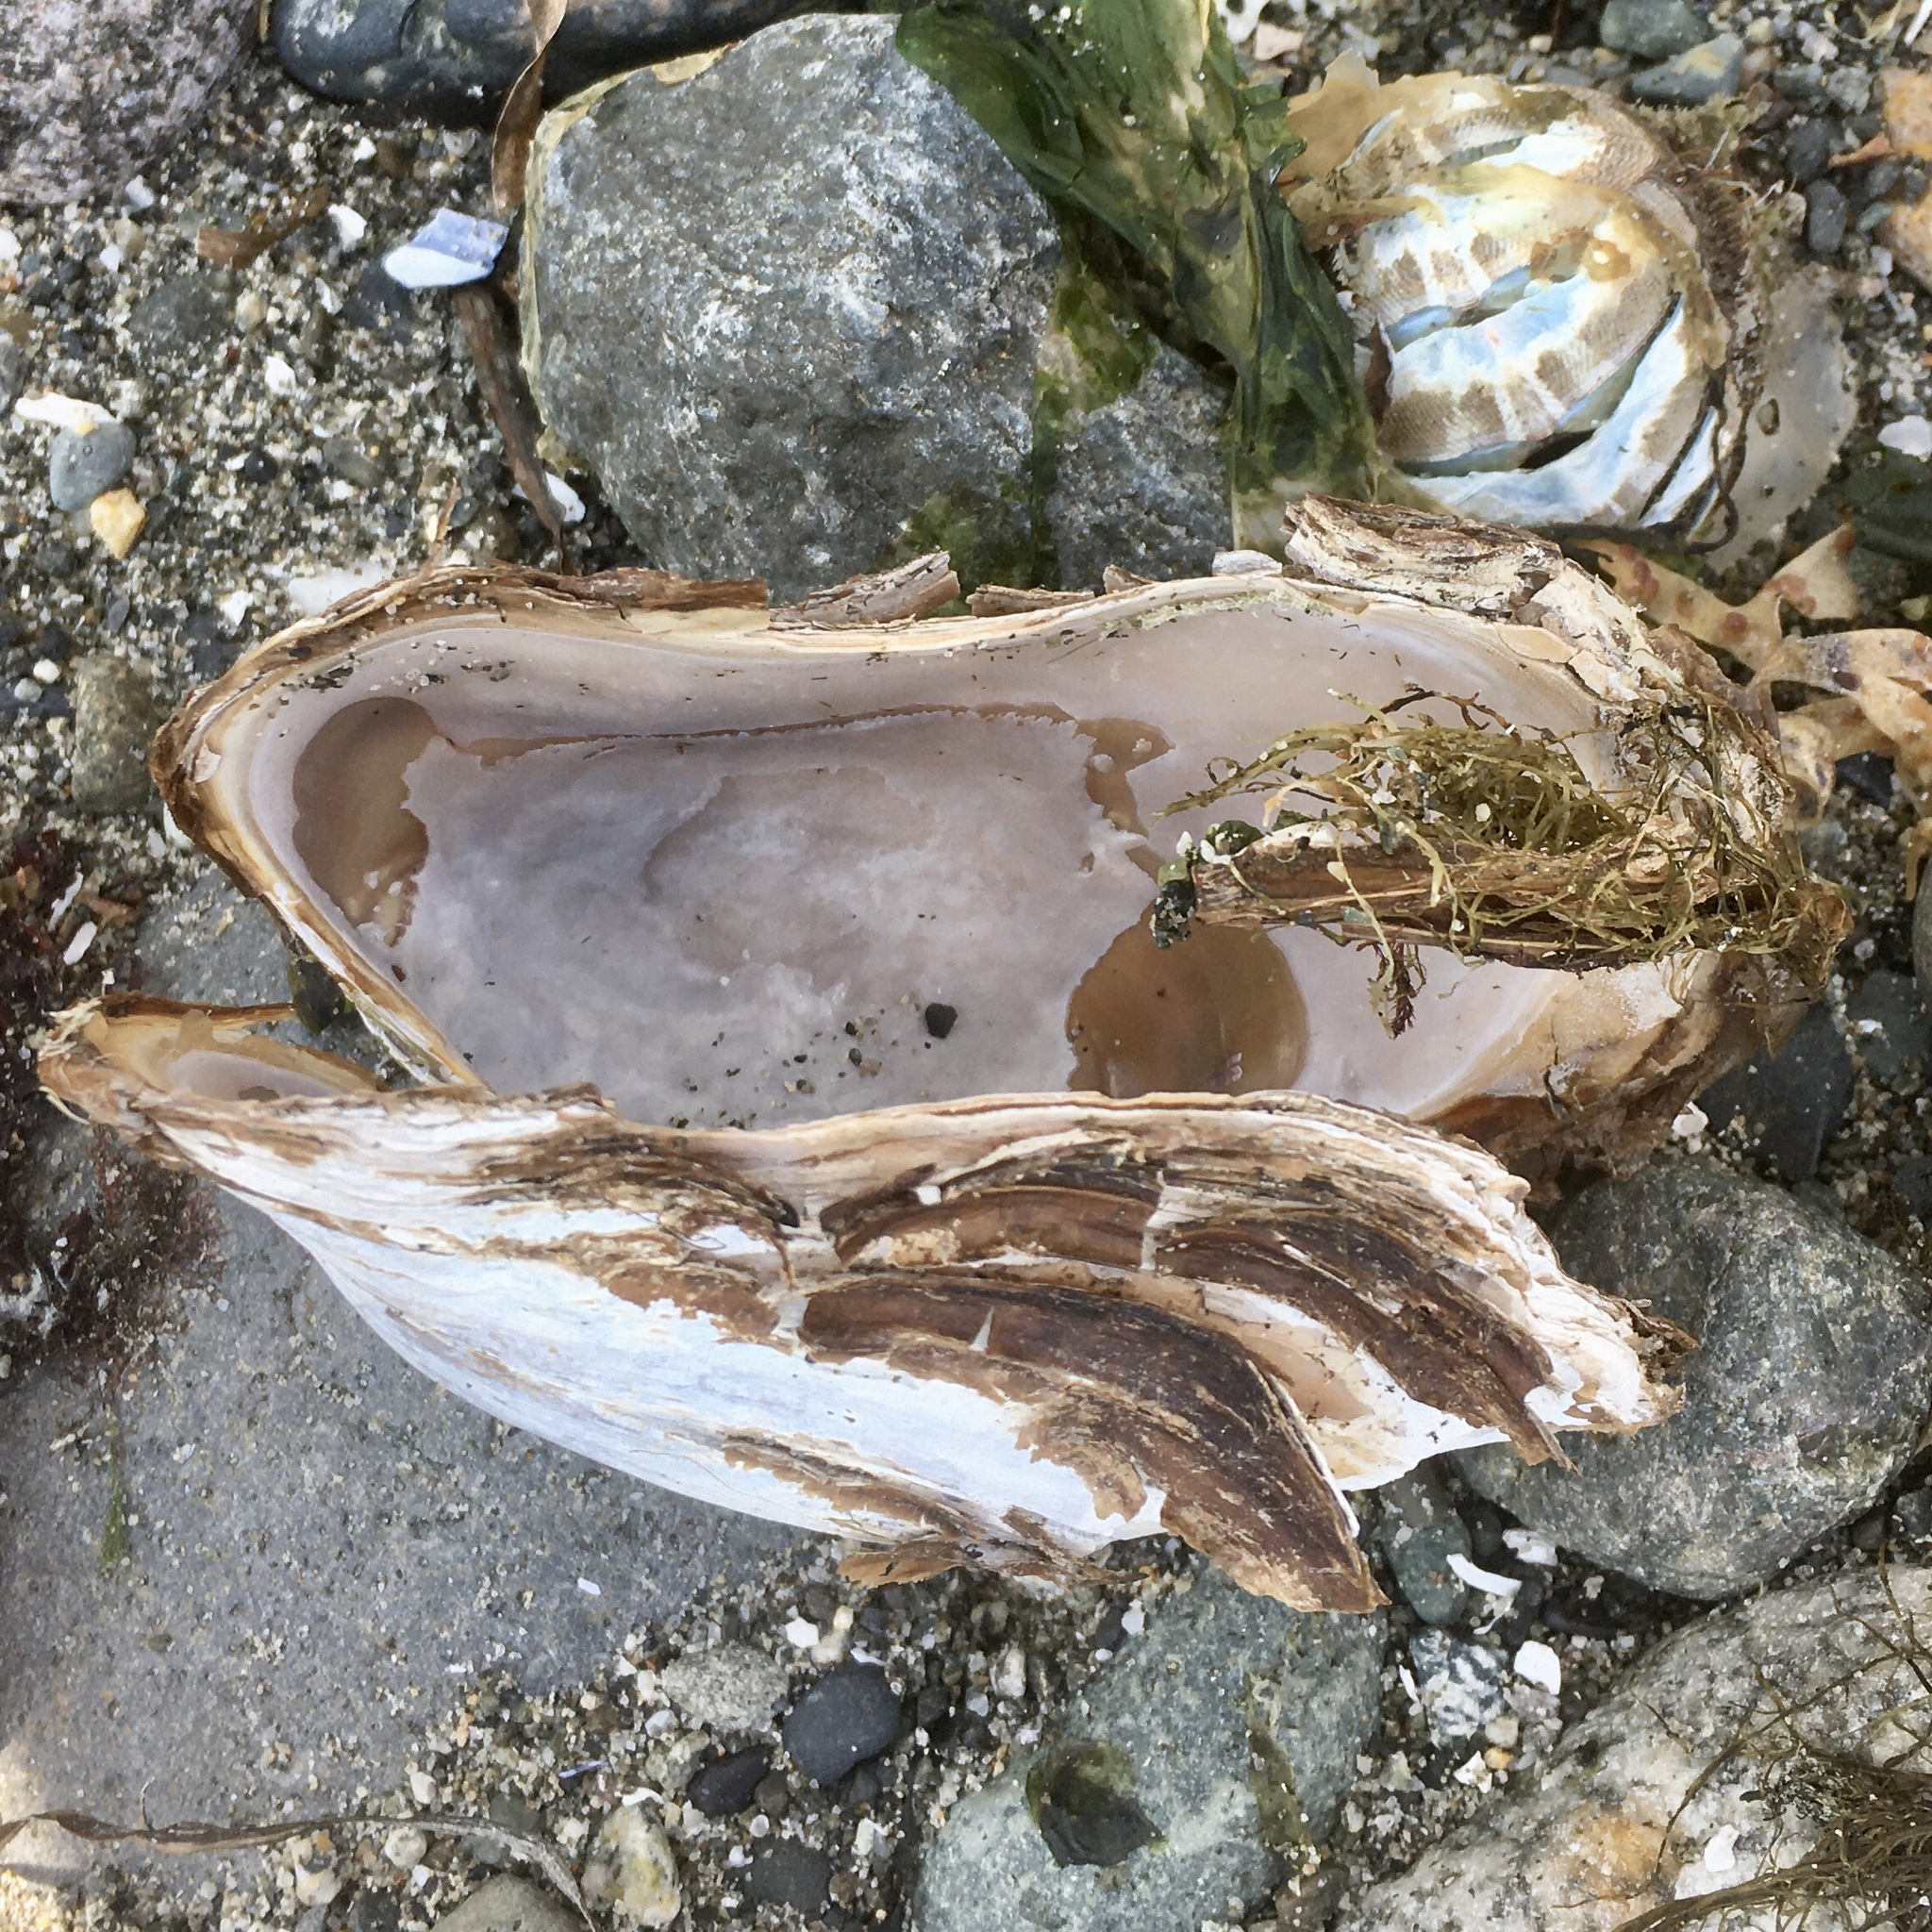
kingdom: Animalia
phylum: Mollusca
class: Bivalvia
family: Lyonsiidae
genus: Entodesma
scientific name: Entodesma navicula
